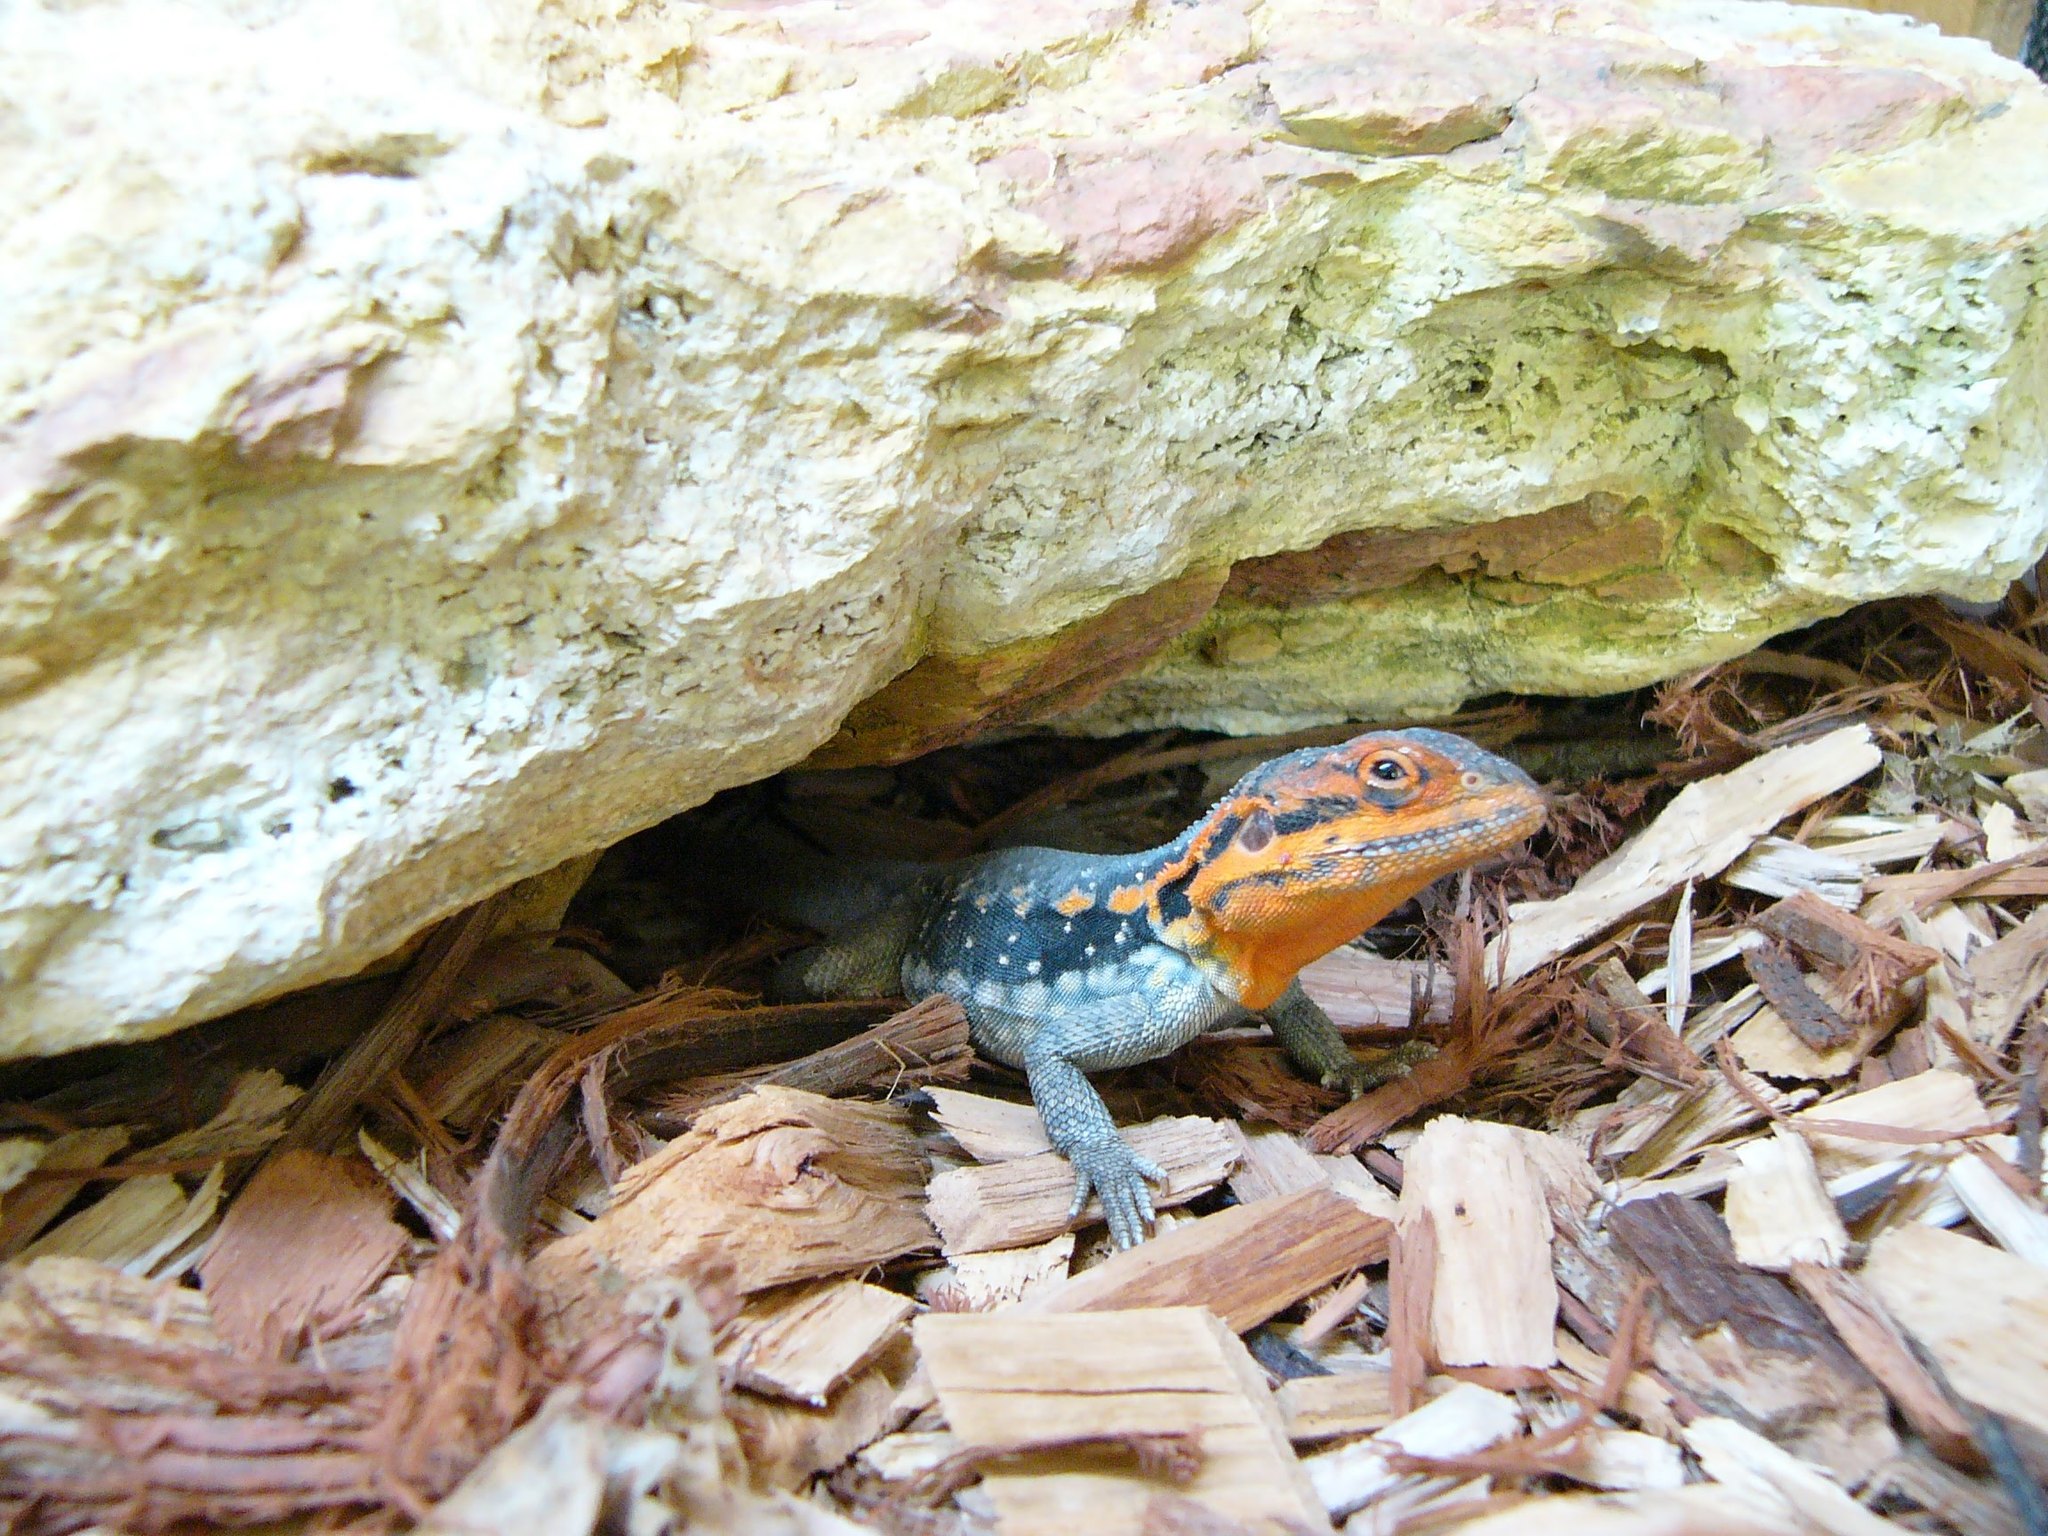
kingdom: Animalia
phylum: Chordata
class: Squamata
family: Agamidae
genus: Ctenophorus
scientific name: Ctenophorus modestus
